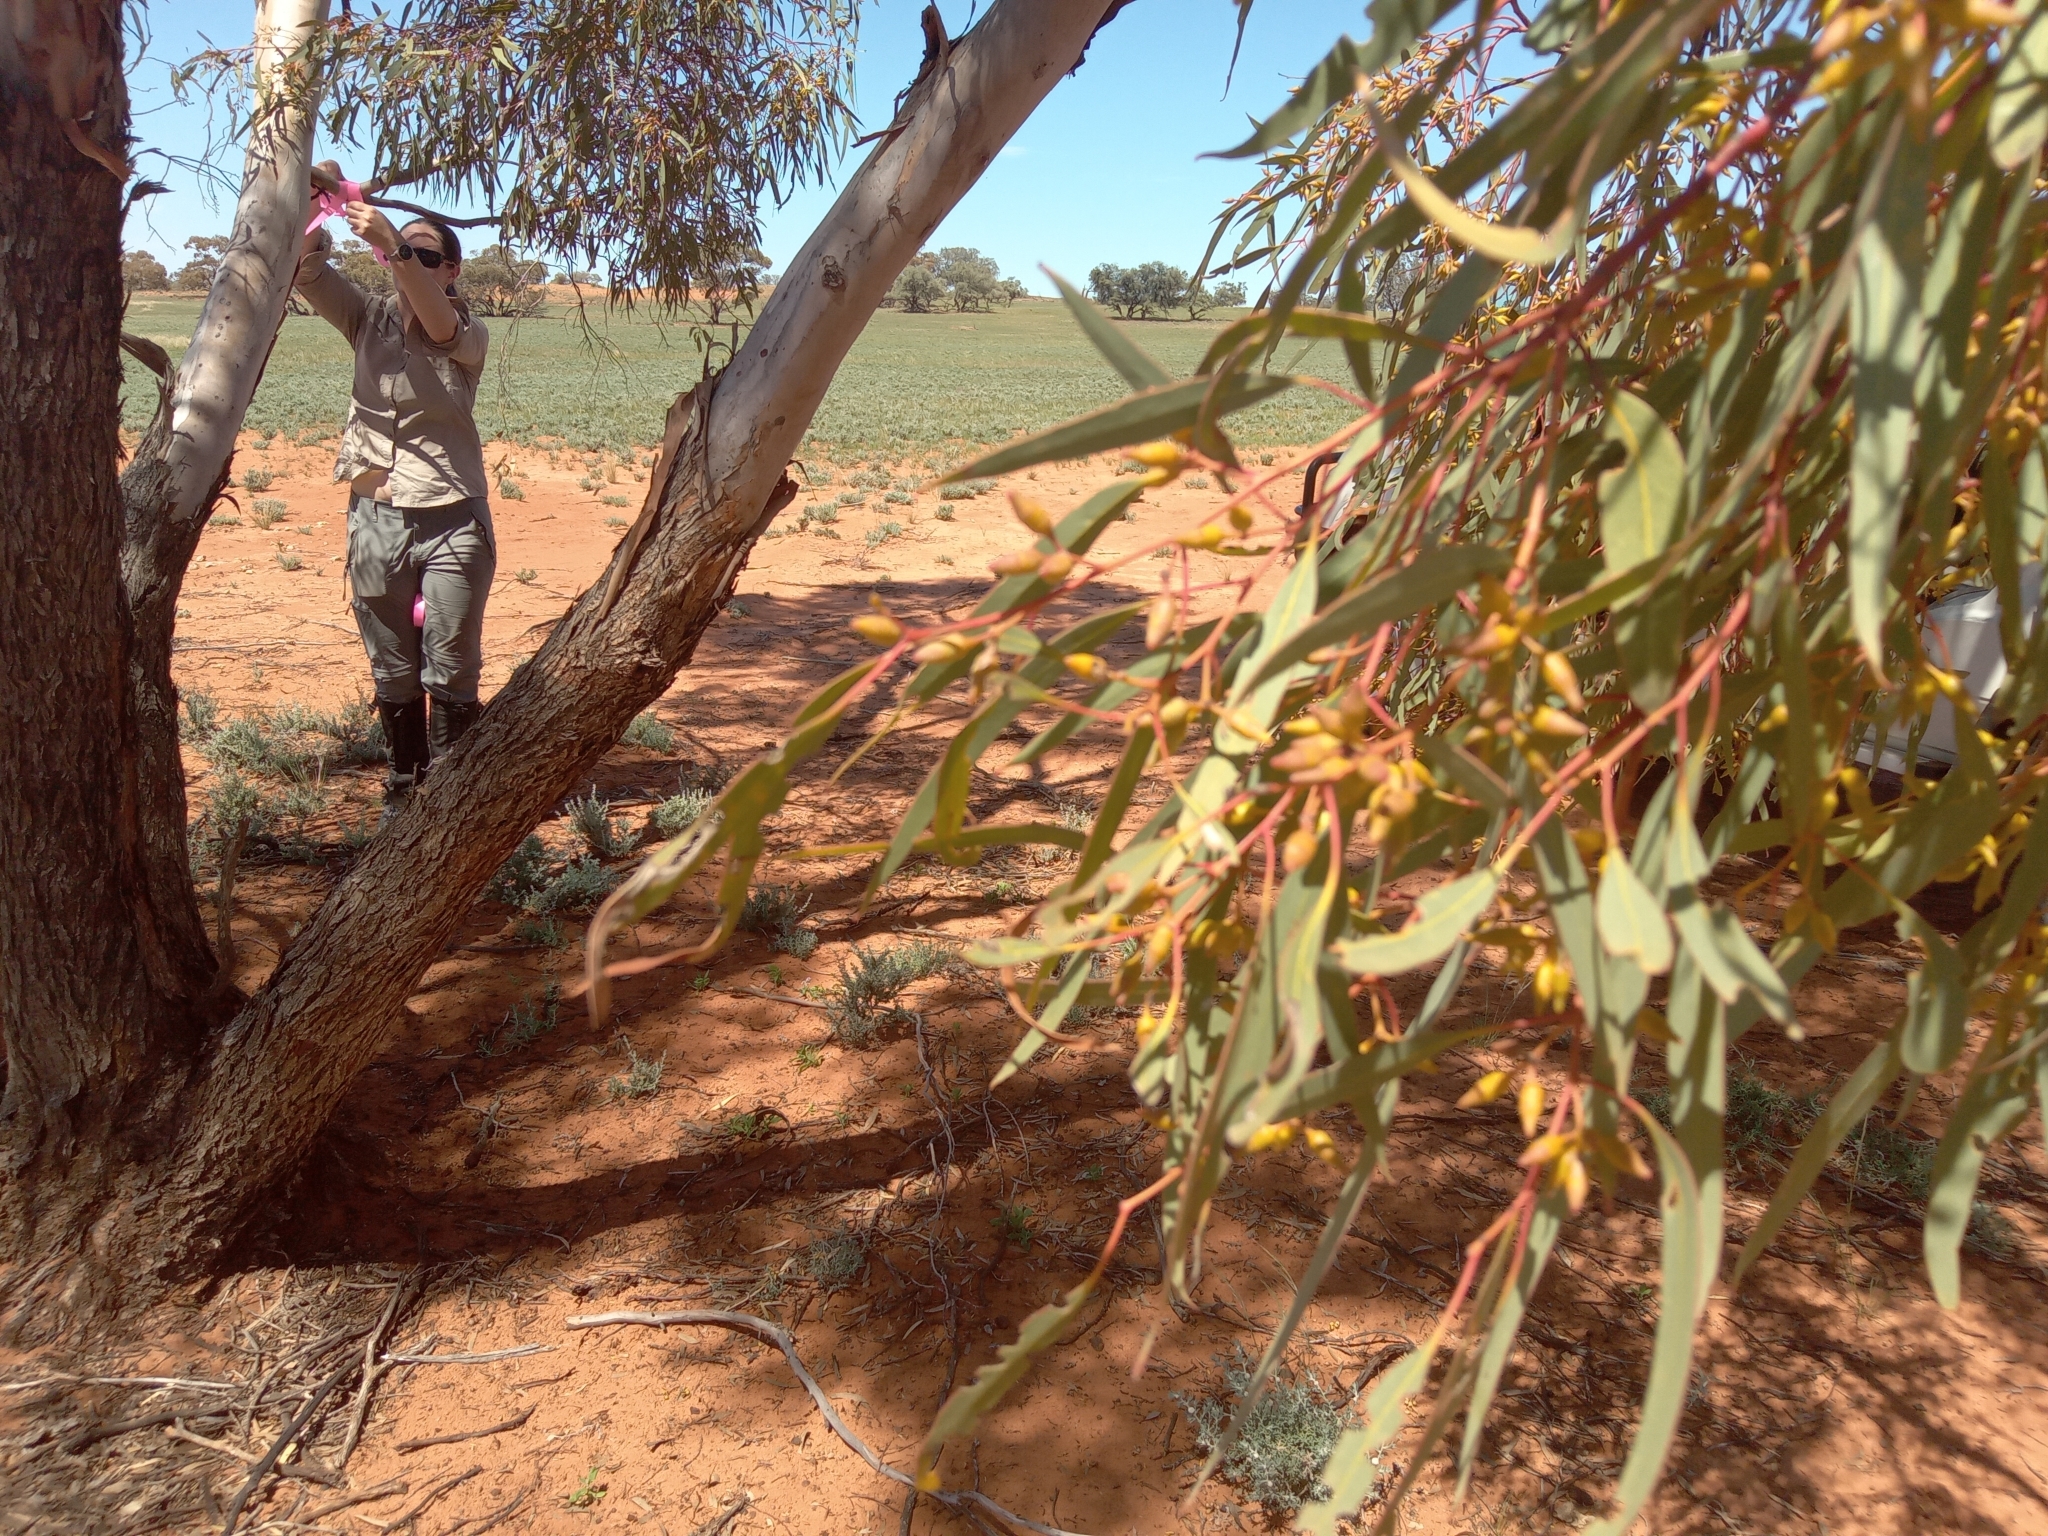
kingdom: Plantae
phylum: Tracheophyta
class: Magnoliopsida
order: Myrtales
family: Myrtaceae
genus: Eucalyptus
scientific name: Eucalyptus socialis
